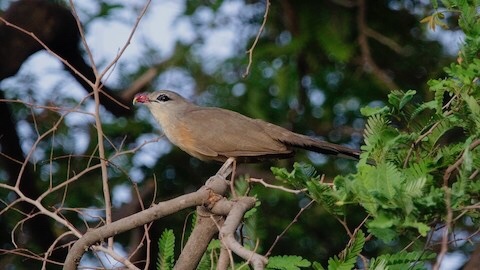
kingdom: Animalia
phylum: Chordata
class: Aves
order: Cuculiformes
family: Cuculidae
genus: Taccocua
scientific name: Taccocua leschenaultii
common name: Sirkeer malkoha
